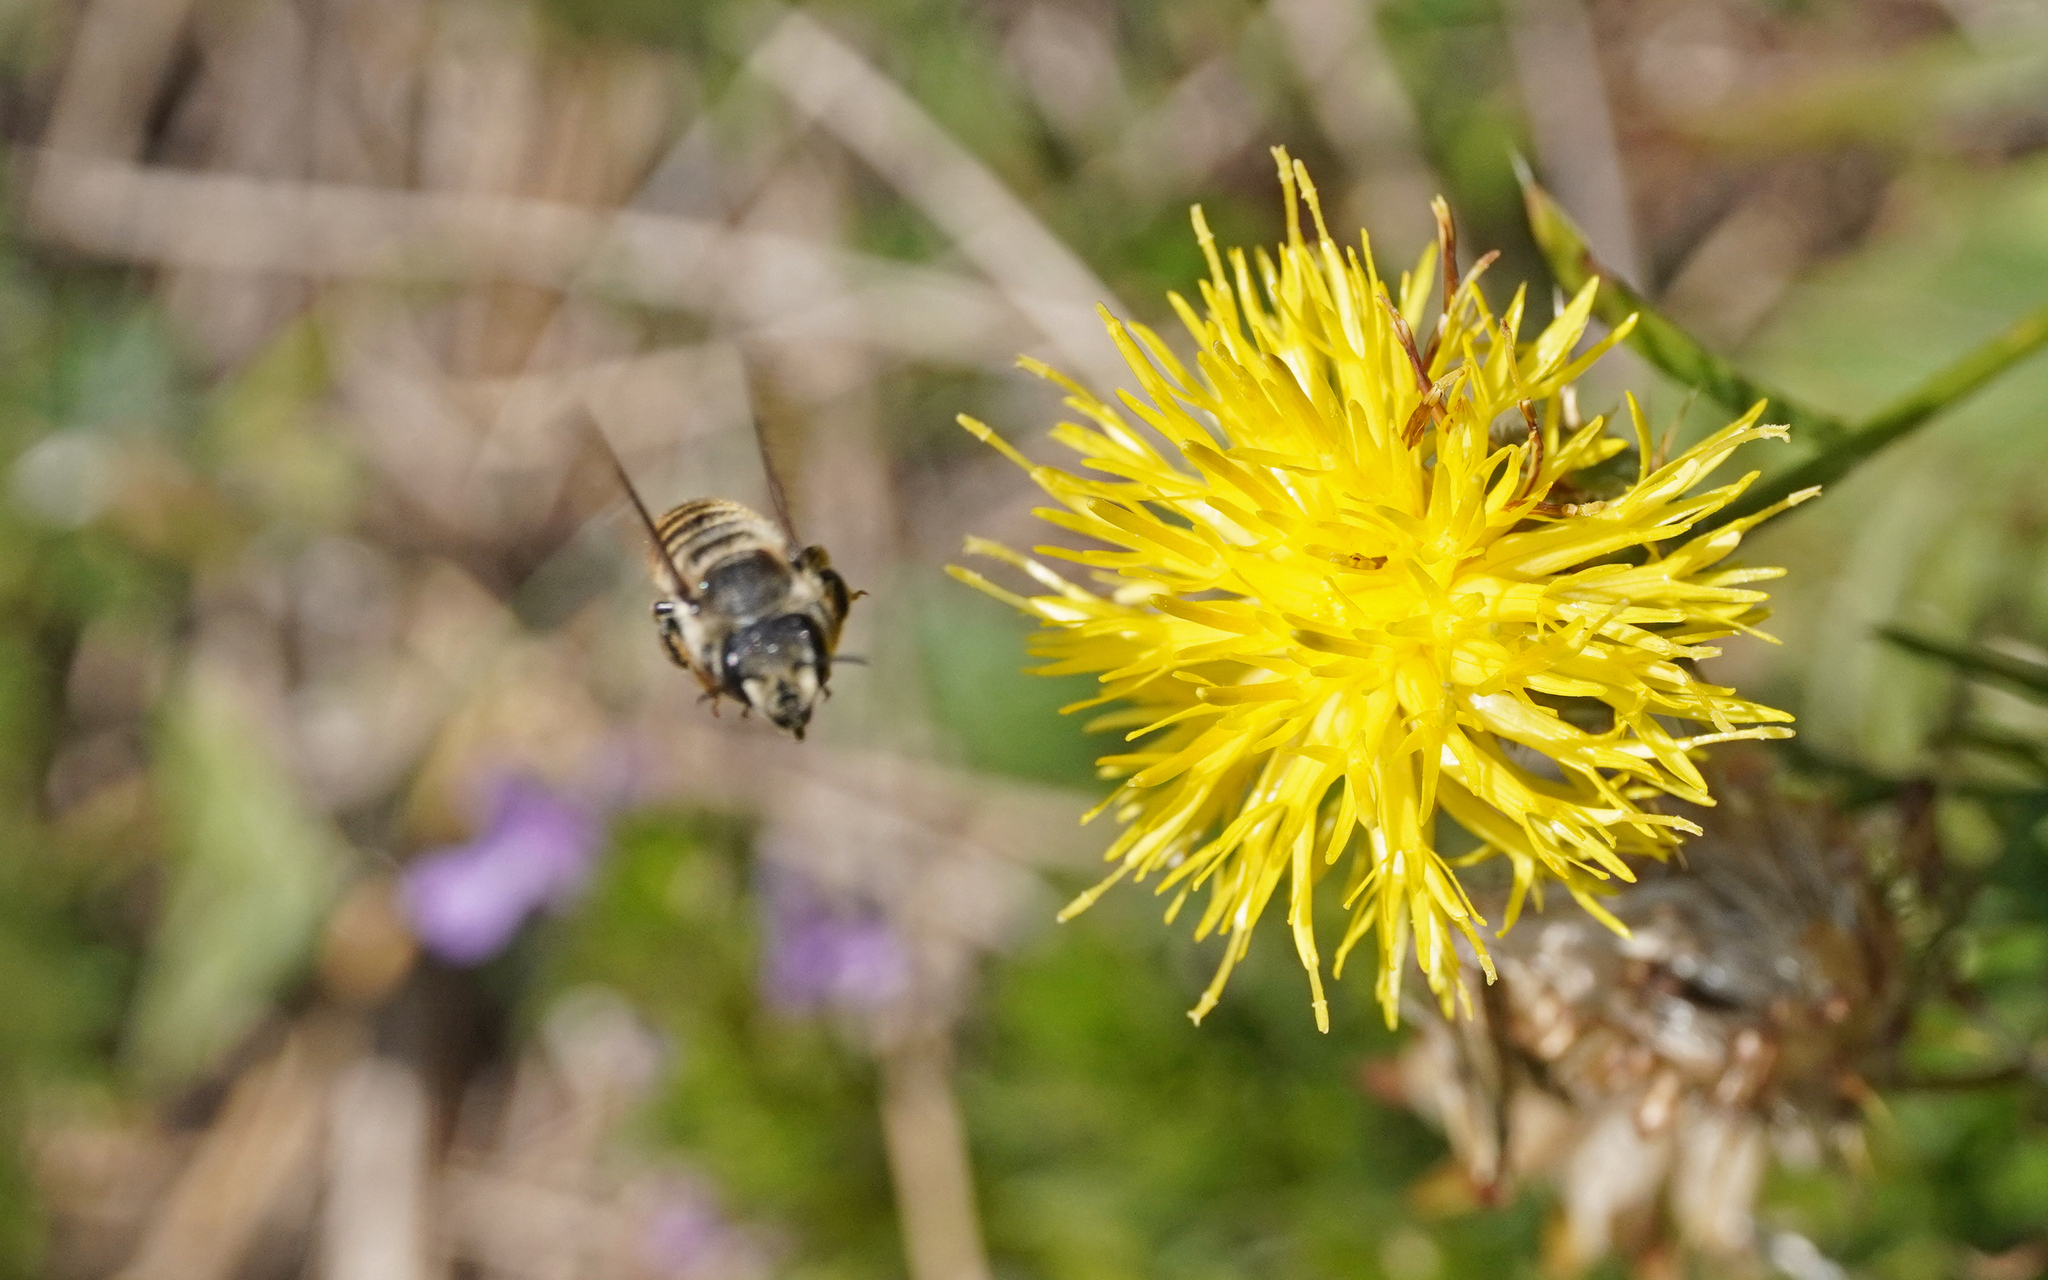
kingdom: Animalia
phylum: Arthropoda
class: Insecta
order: Hymenoptera
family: Megachilidae
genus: Megachile
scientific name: Megachile melanopyga
